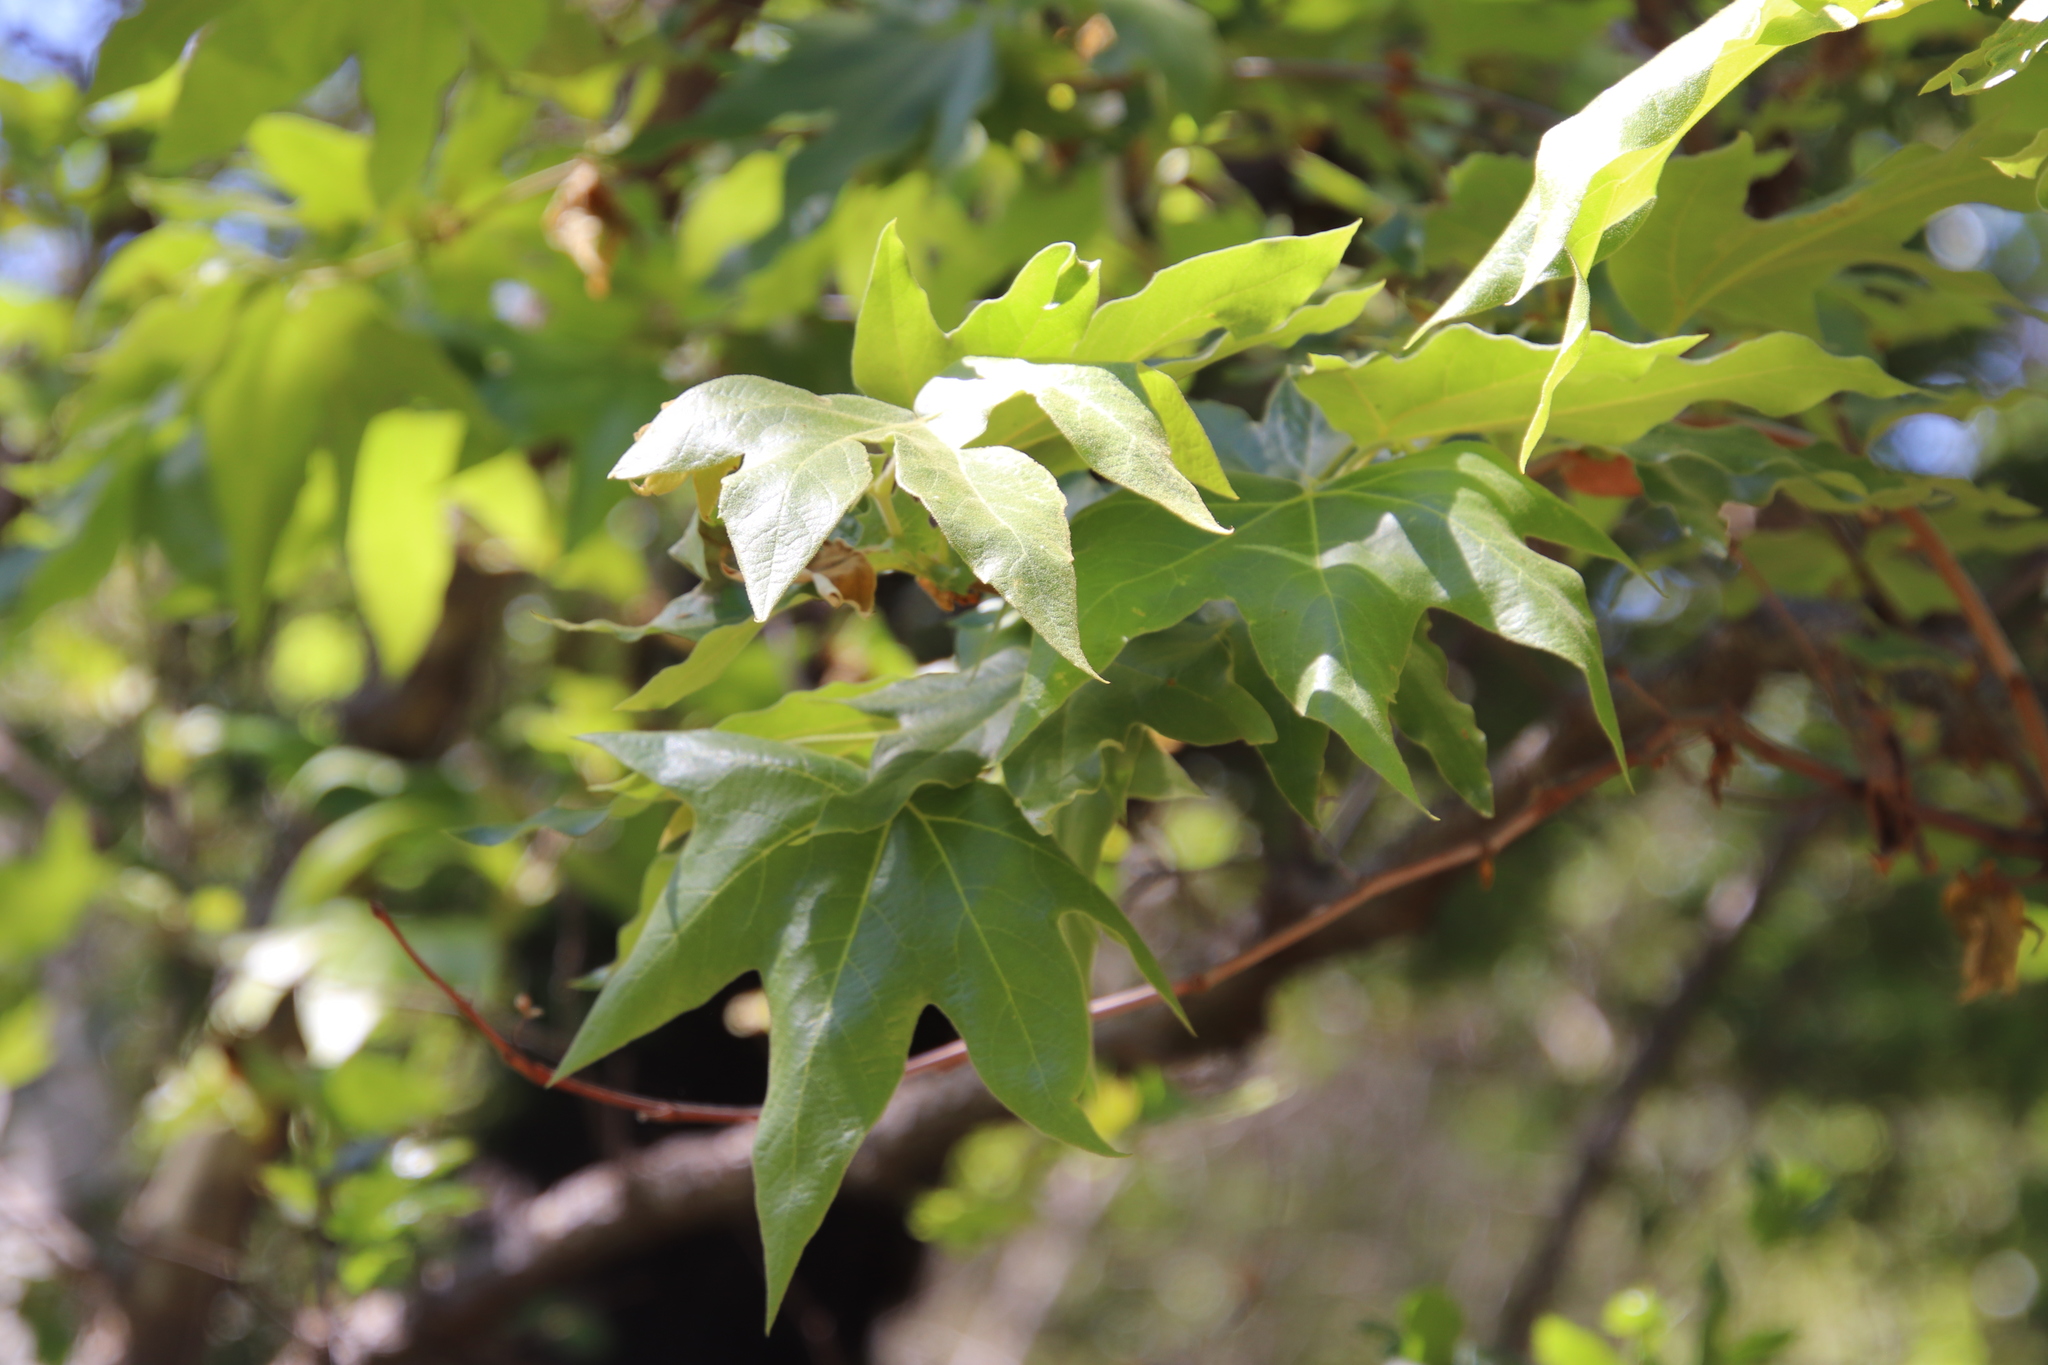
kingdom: Plantae
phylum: Tracheophyta
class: Magnoliopsida
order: Proteales
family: Platanaceae
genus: Platanus
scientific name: Platanus racemosa
